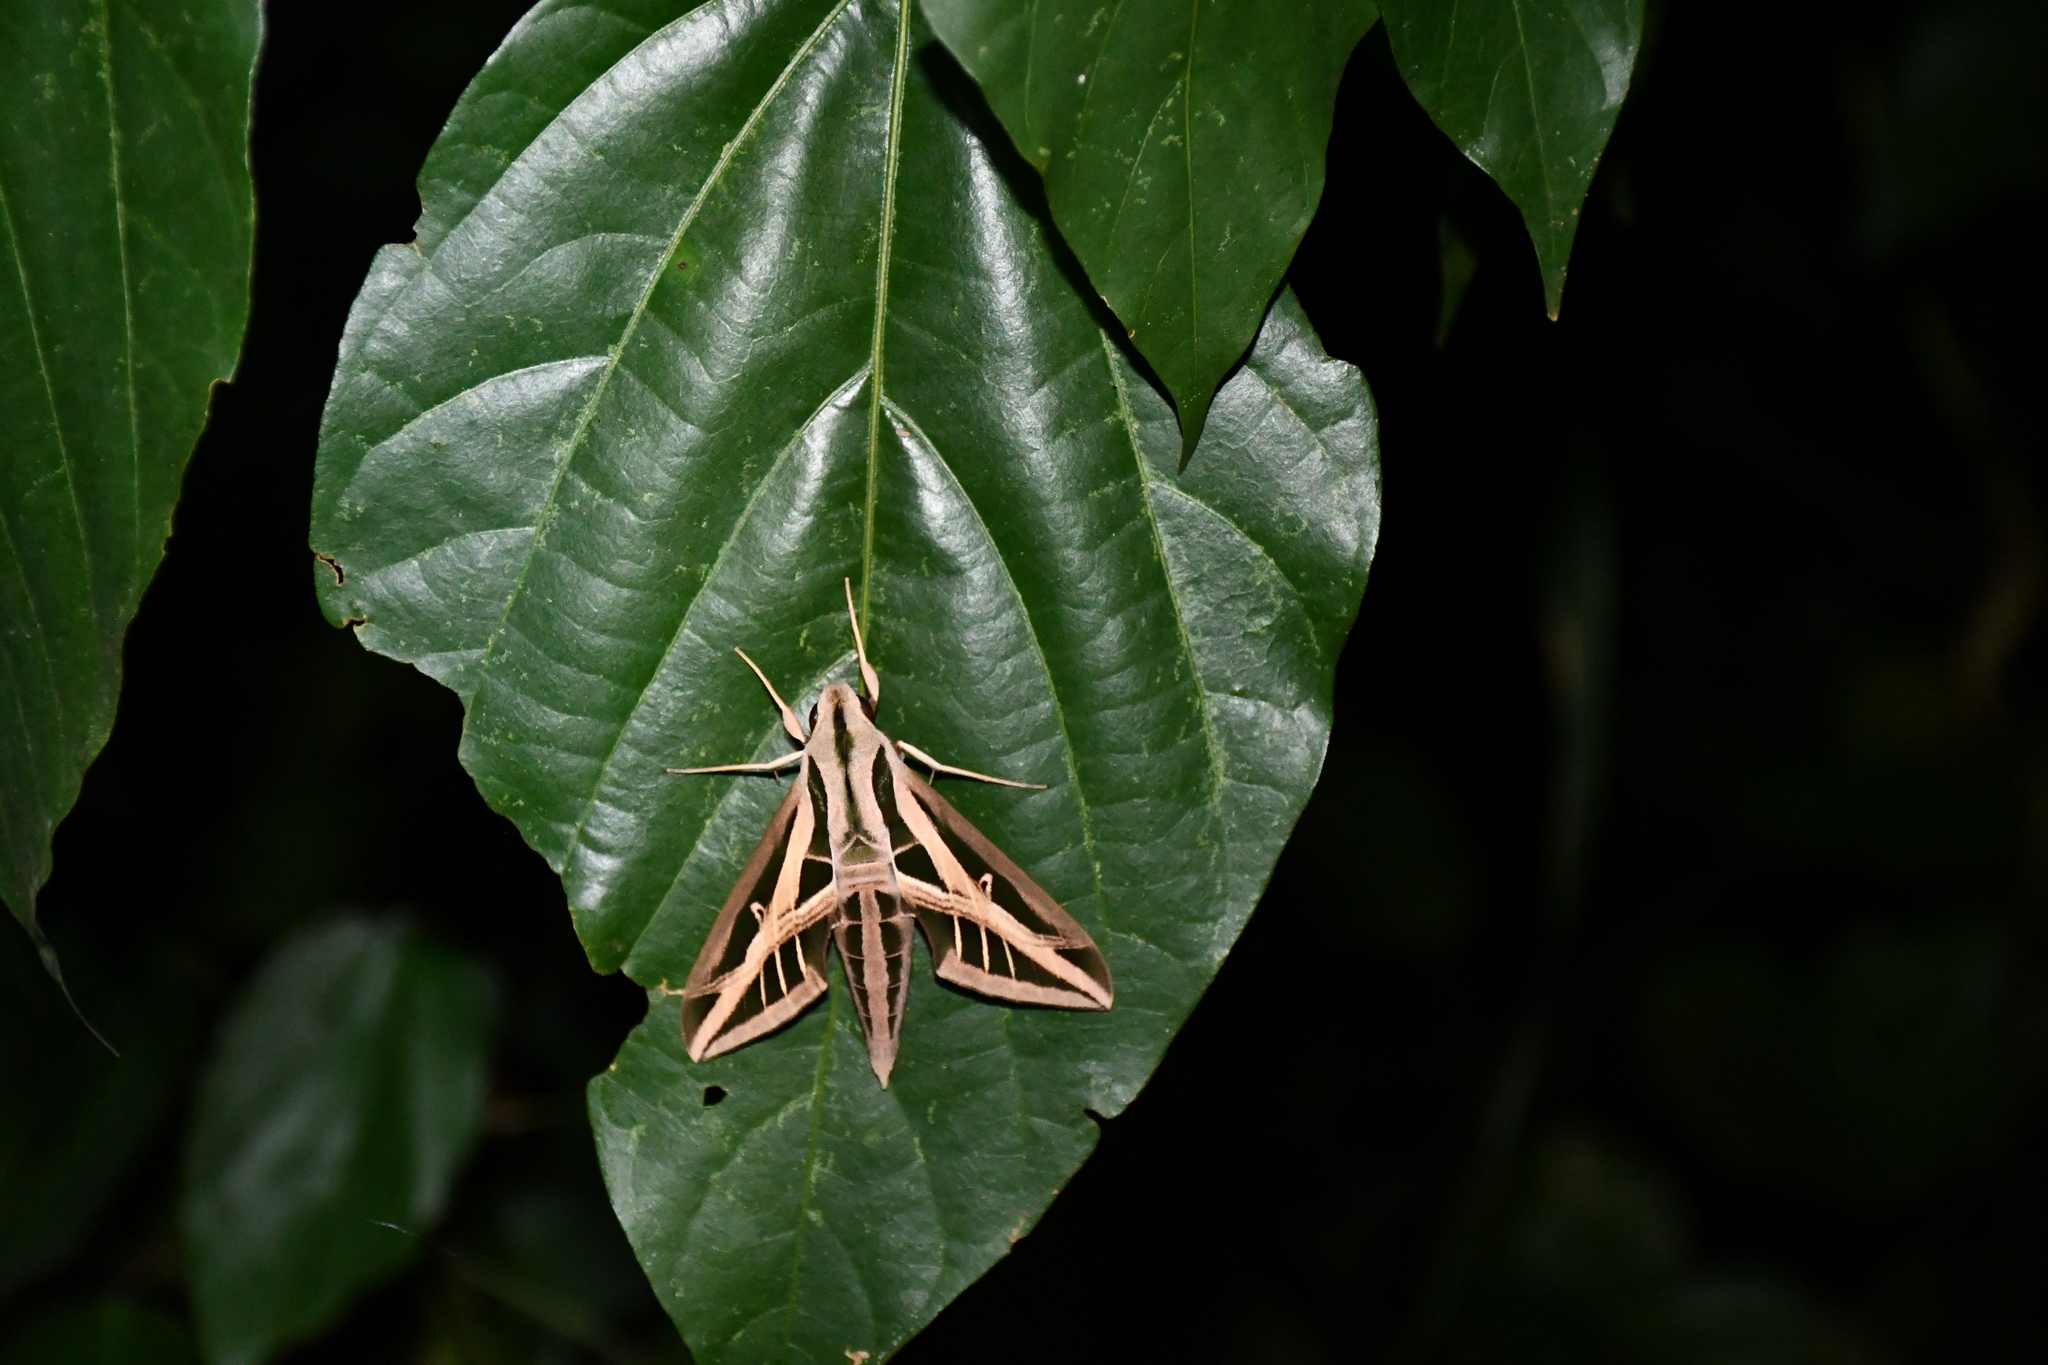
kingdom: Animalia
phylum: Arthropoda
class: Insecta
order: Lepidoptera
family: Sphingidae
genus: Eumorpha
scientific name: Eumorpha fasciatus
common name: Banded sphinx
